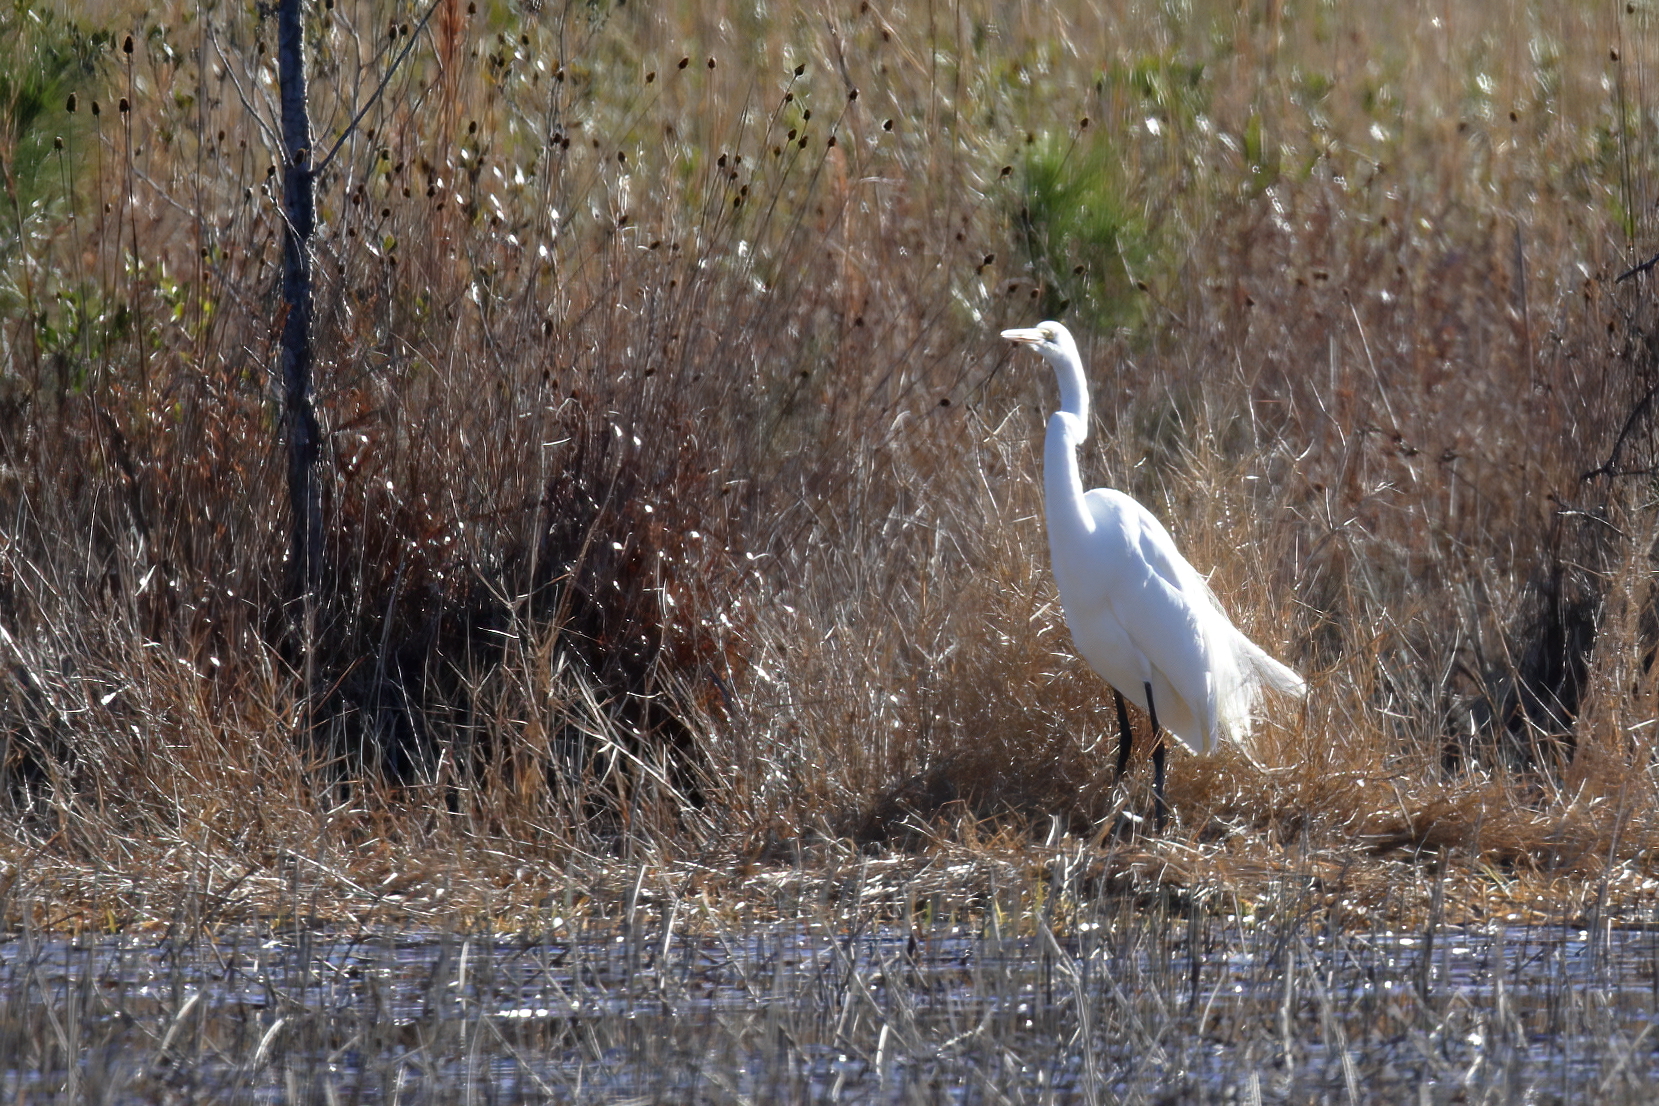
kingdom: Animalia
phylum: Chordata
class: Aves
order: Pelecaniformes
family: Ardeidae
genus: Ardea
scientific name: Ardea alba
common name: Great egret
